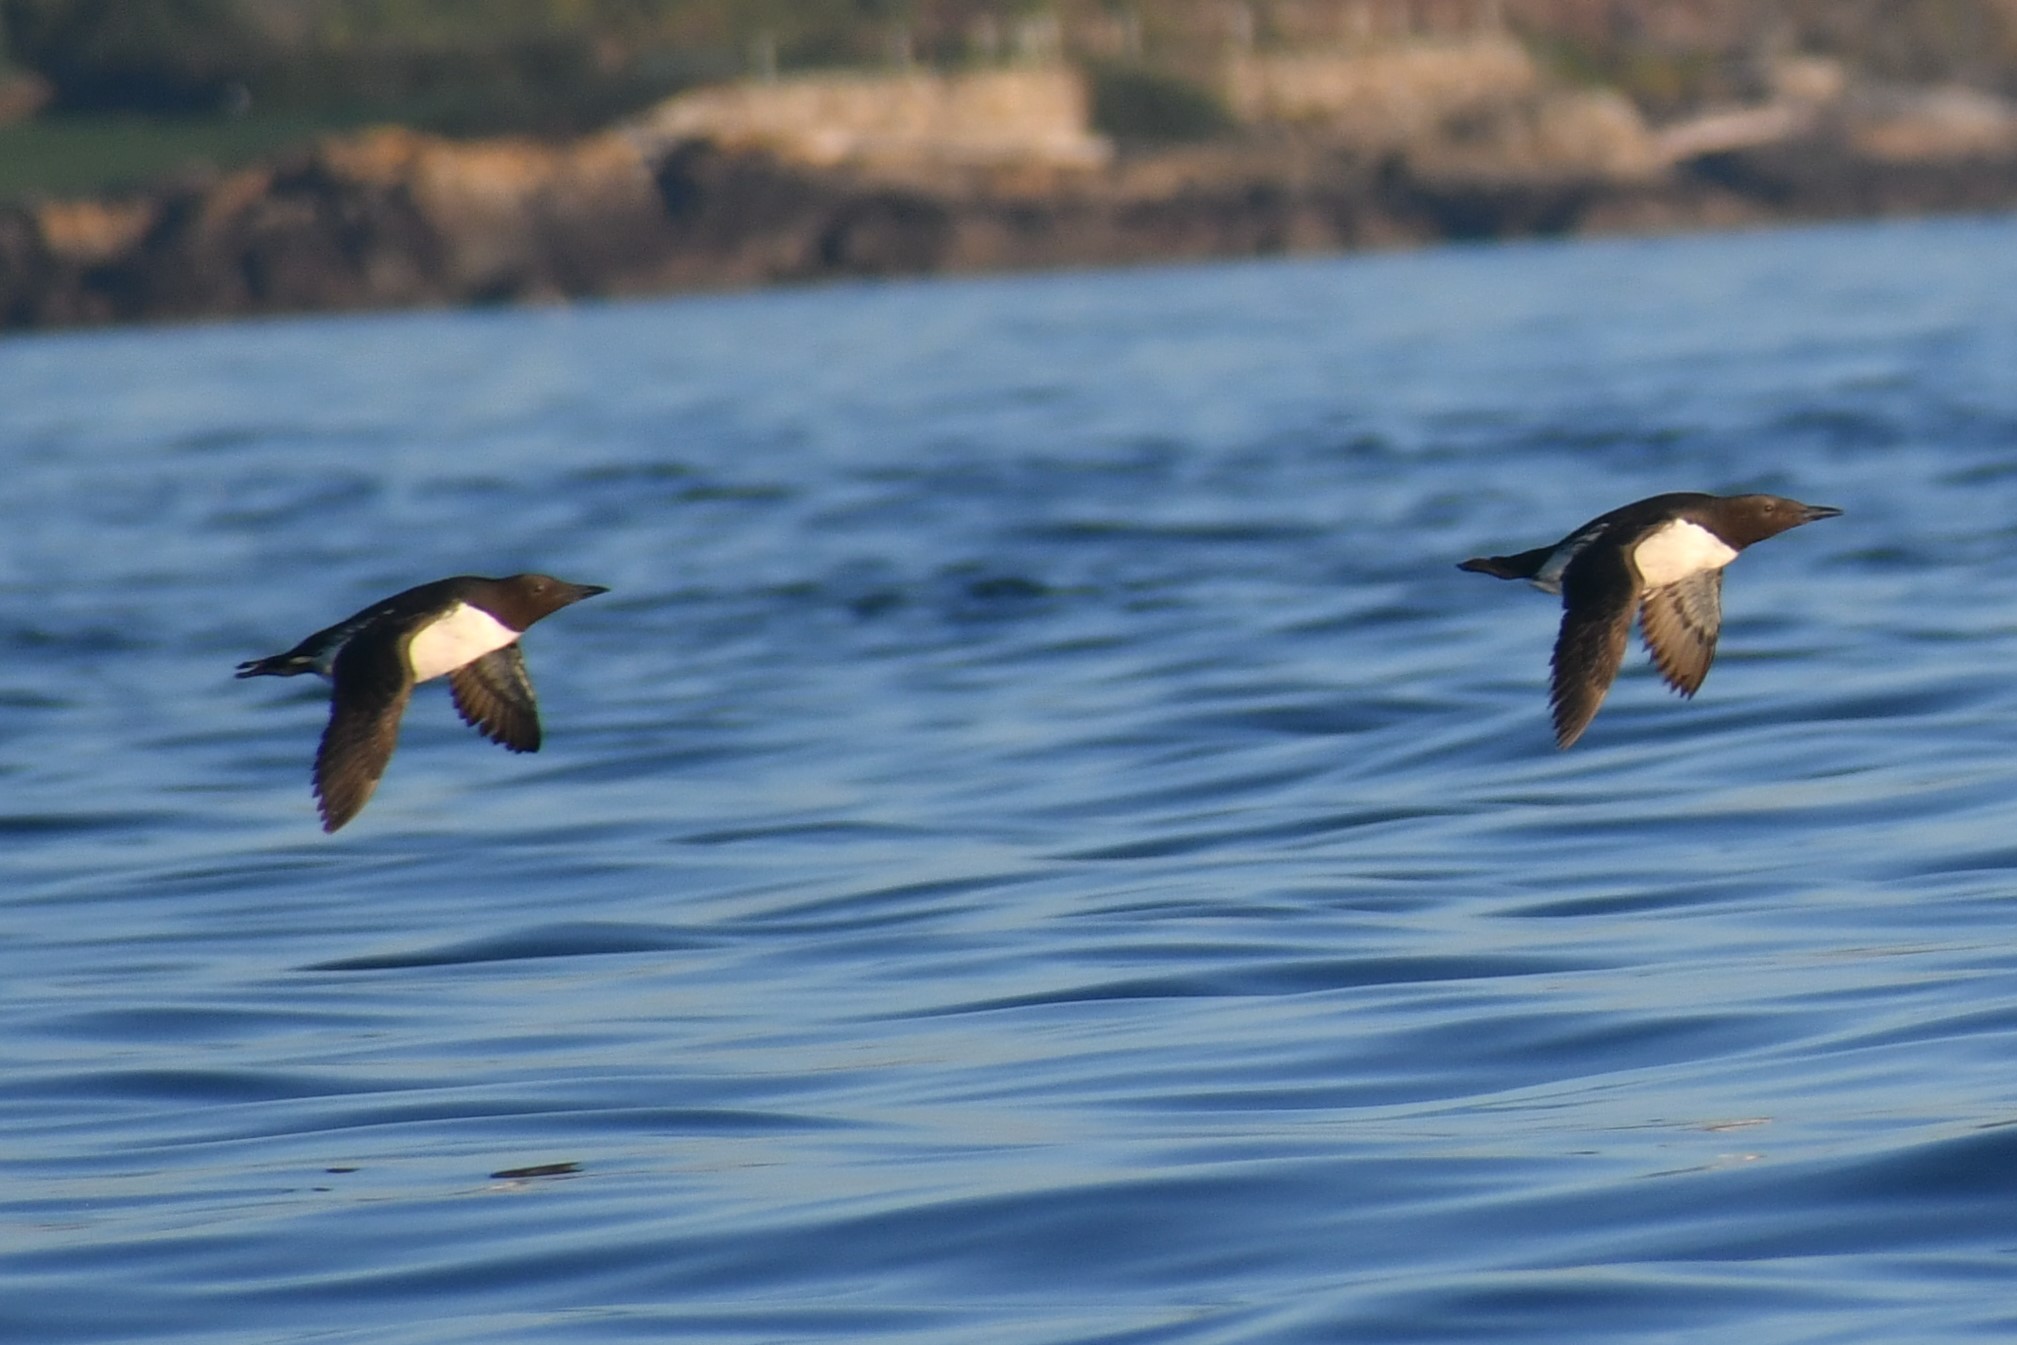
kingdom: Animalia
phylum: Chordata
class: Aves
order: Charadriiformes
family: Alcidae
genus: Uria
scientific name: Uria aalge
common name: Common murre
